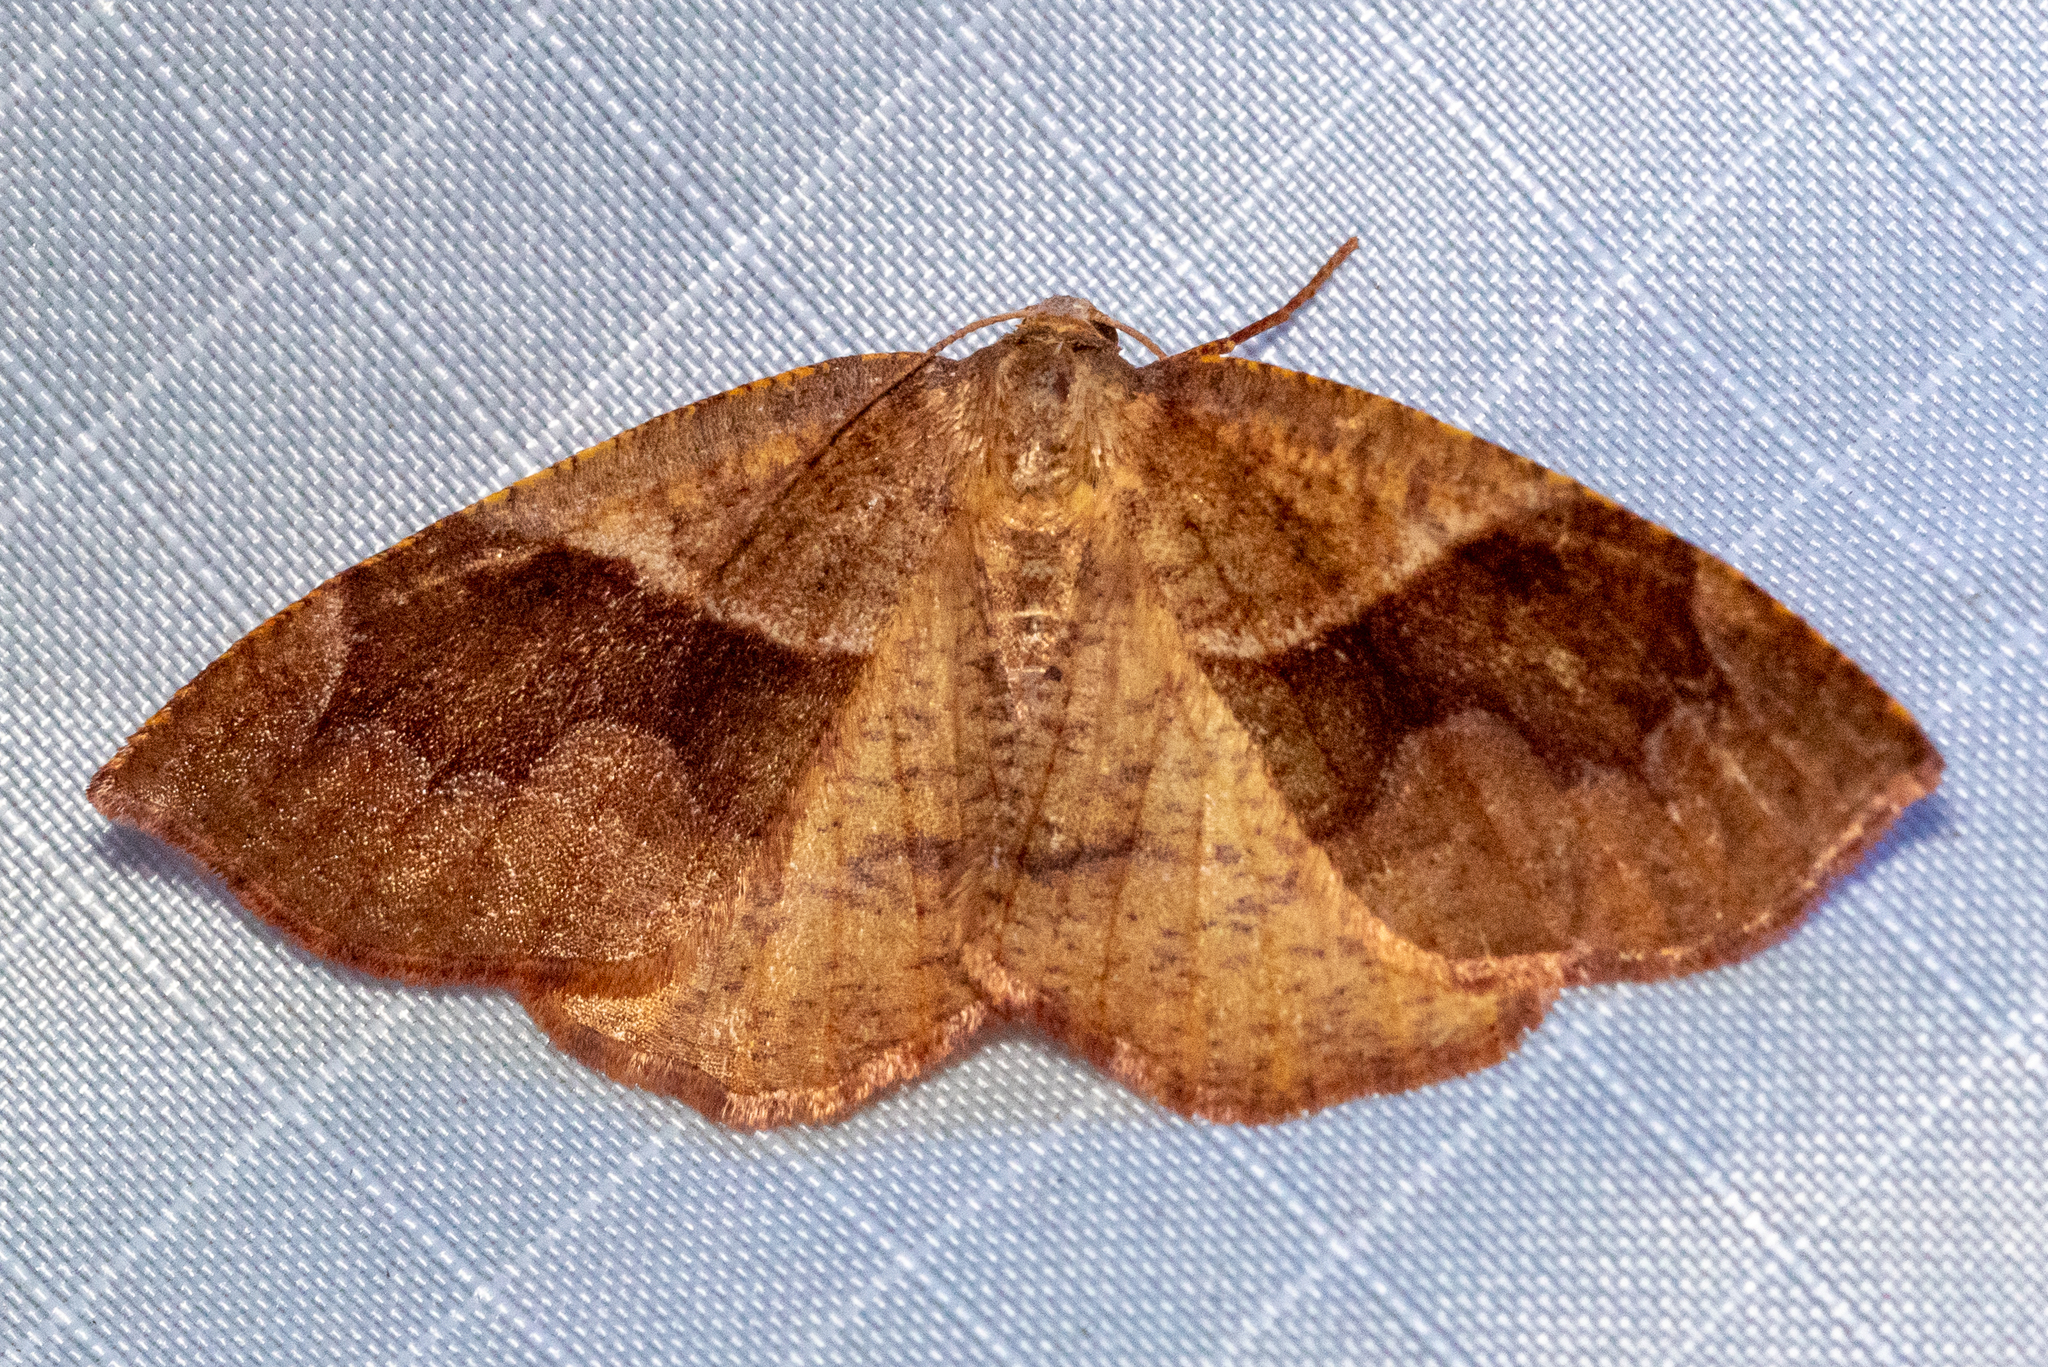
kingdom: Animalia
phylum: Arthropoda
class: Insecta
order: Lepidoptera
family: Geometridae
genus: Plagodis
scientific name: Plagodis pulveraria
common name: Barred umber
